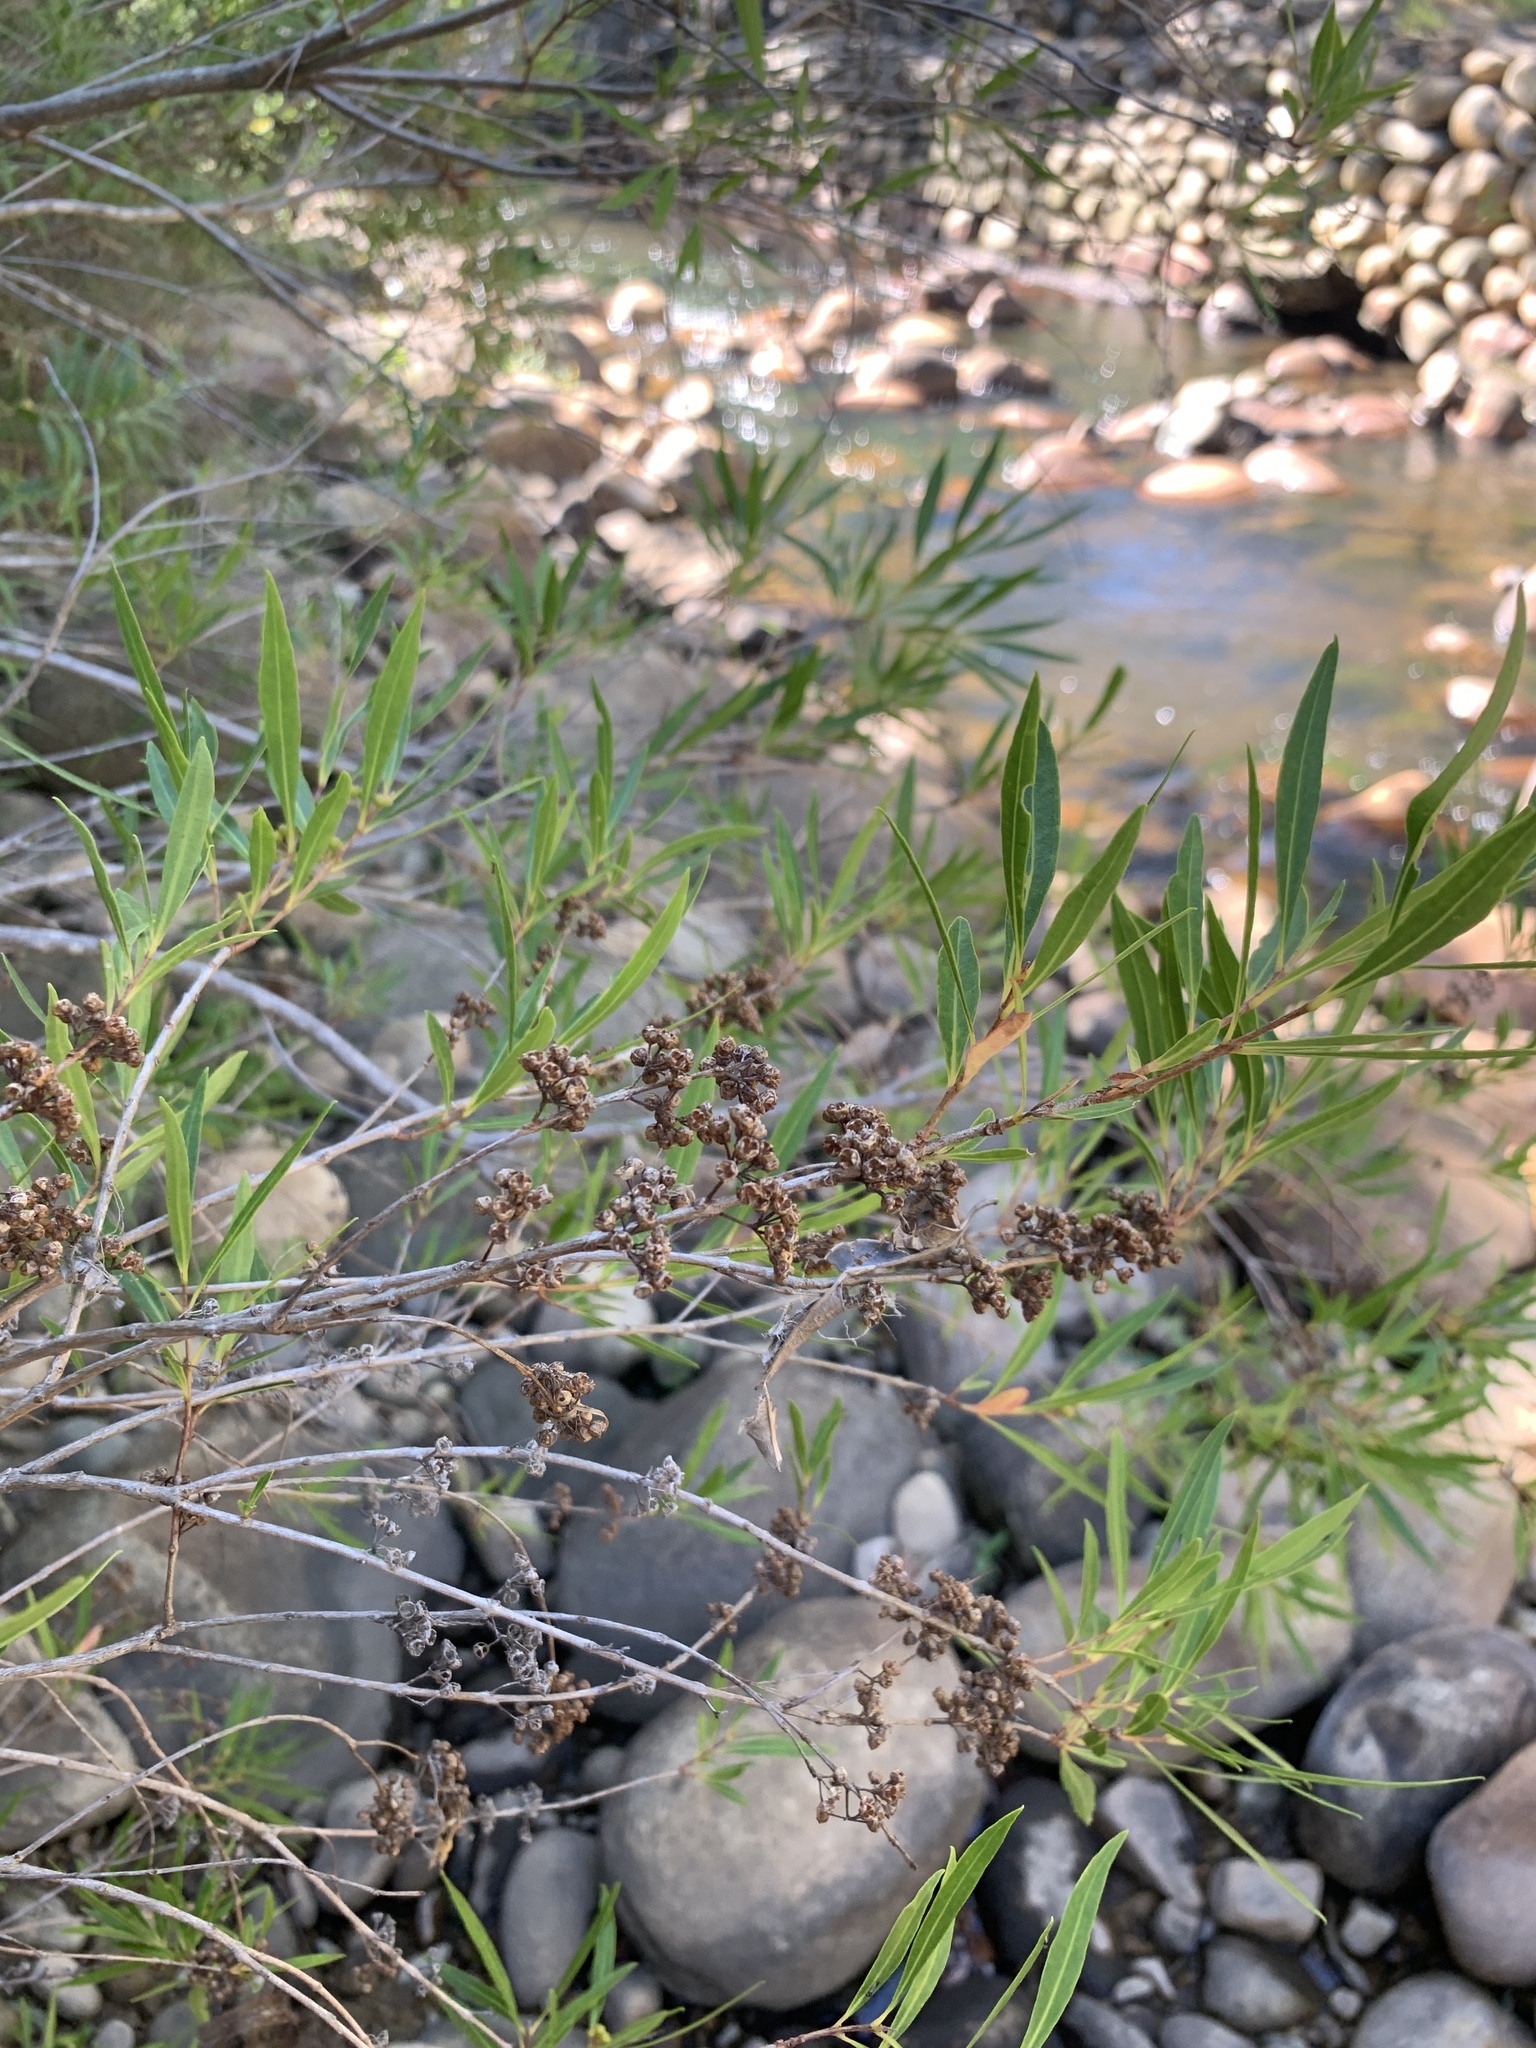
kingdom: Plantae
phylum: Tracheophyta
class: Magnoliopsida
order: Myrtales
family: Myrtaceae
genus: Callistemon
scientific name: Callistemon lanceolatus
